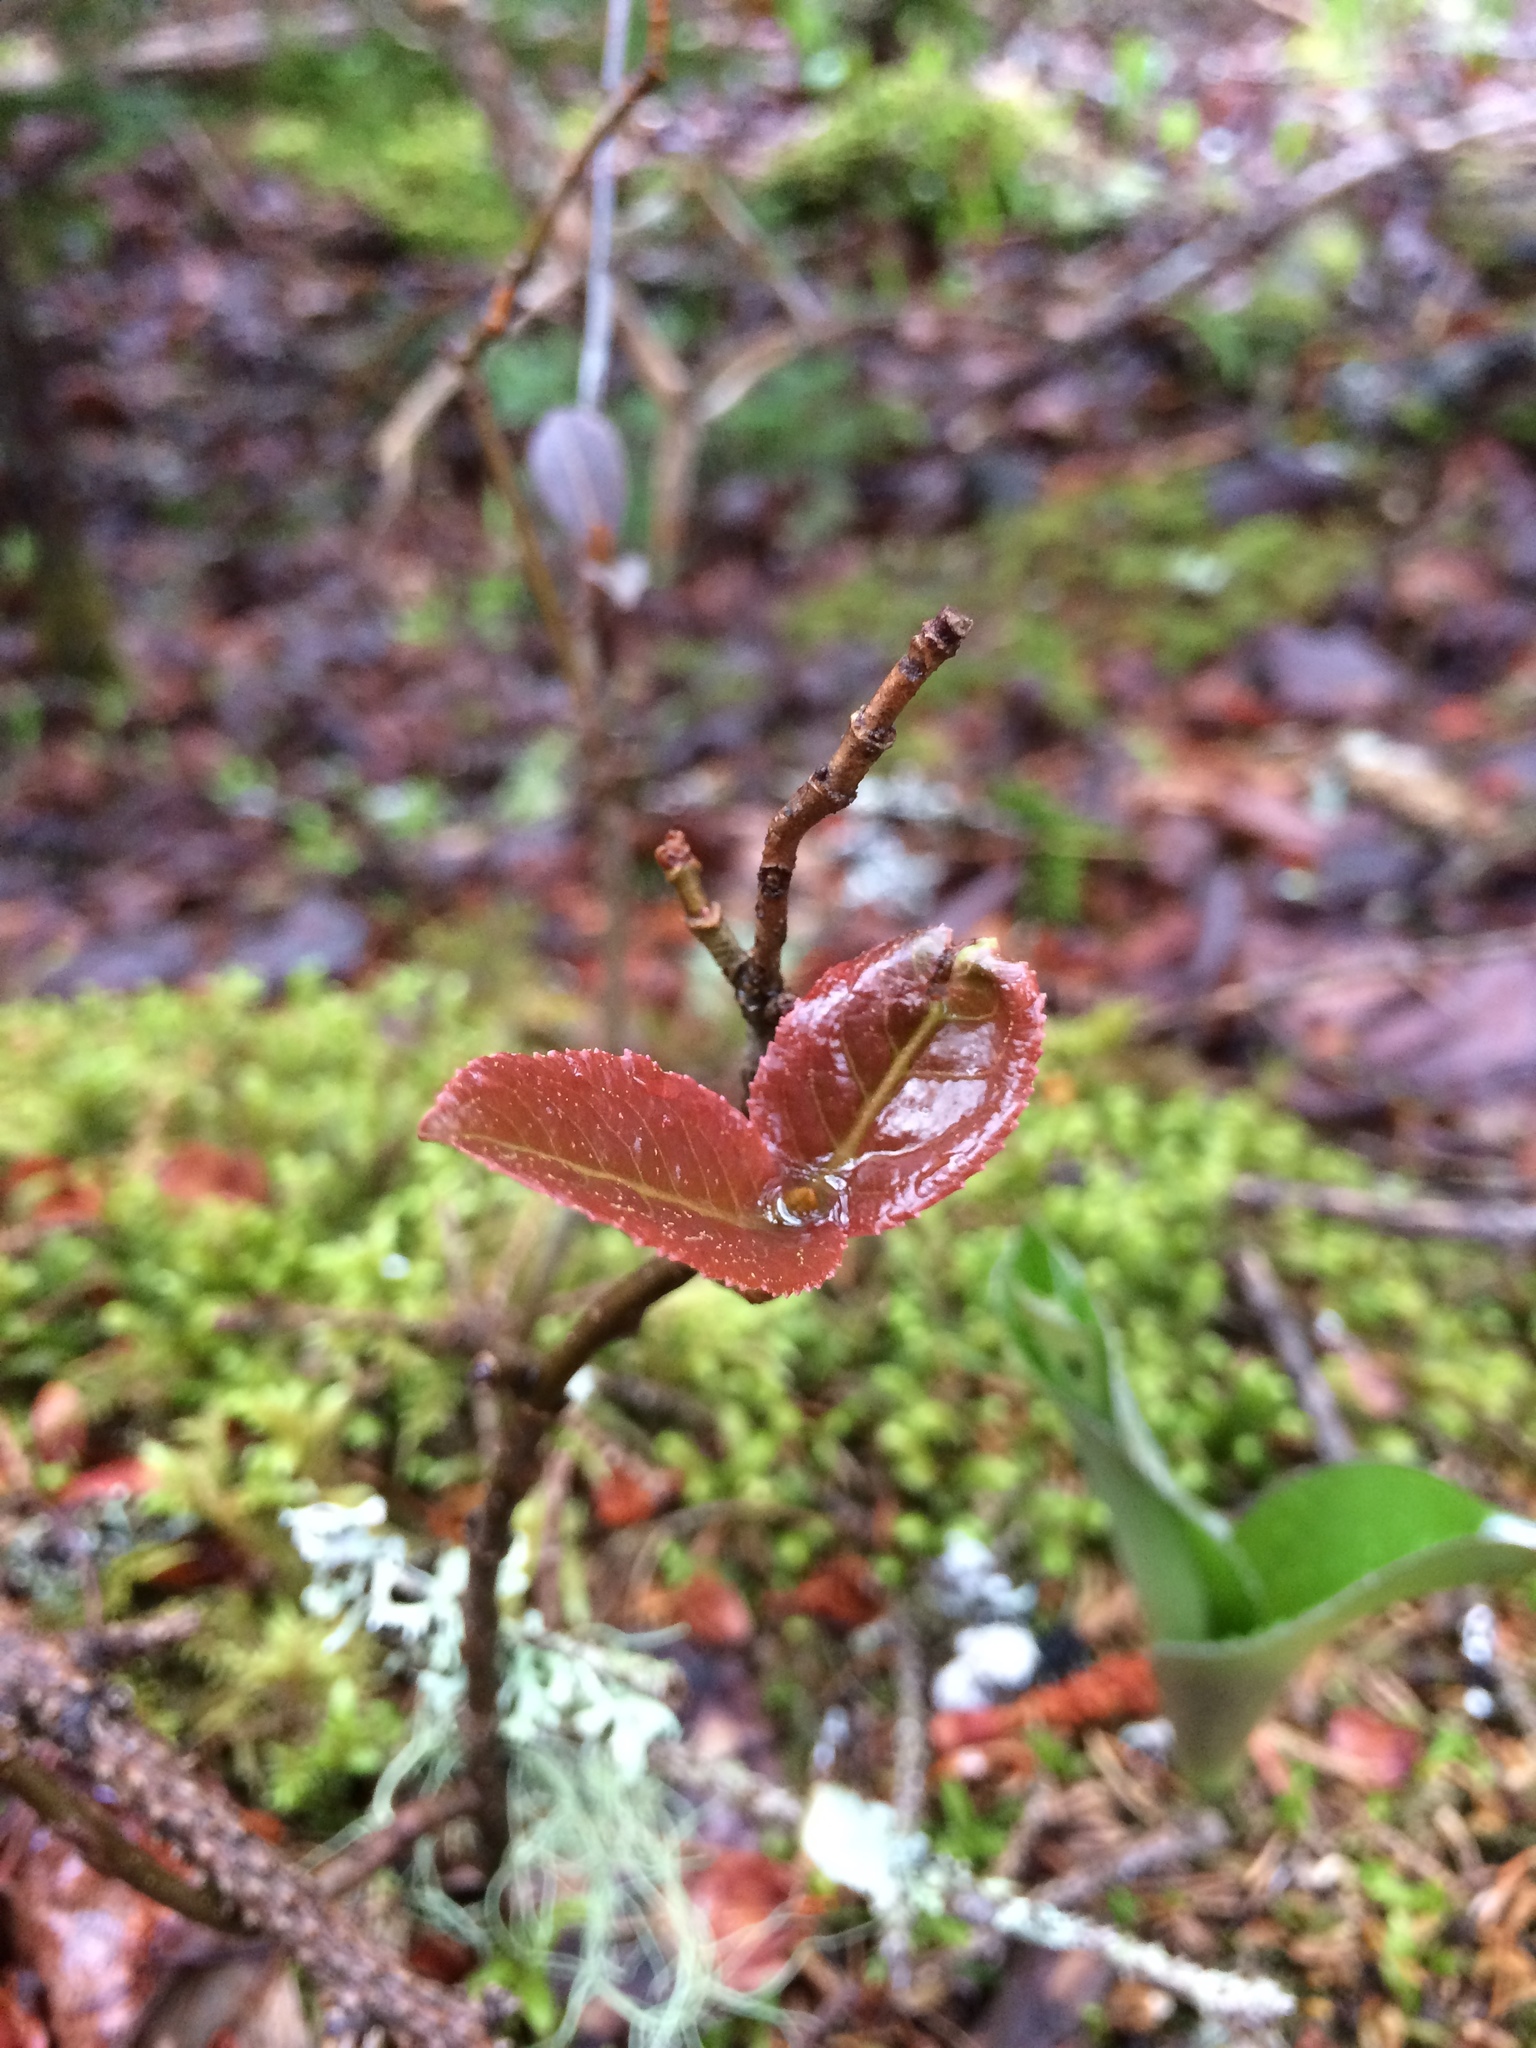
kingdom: Plantae
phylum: Tracheophyta
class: Magnoliopsida
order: Dipsacales
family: Viburnaceae
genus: Viburnum
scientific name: Viburnum cassinoides
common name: Swamp haw
